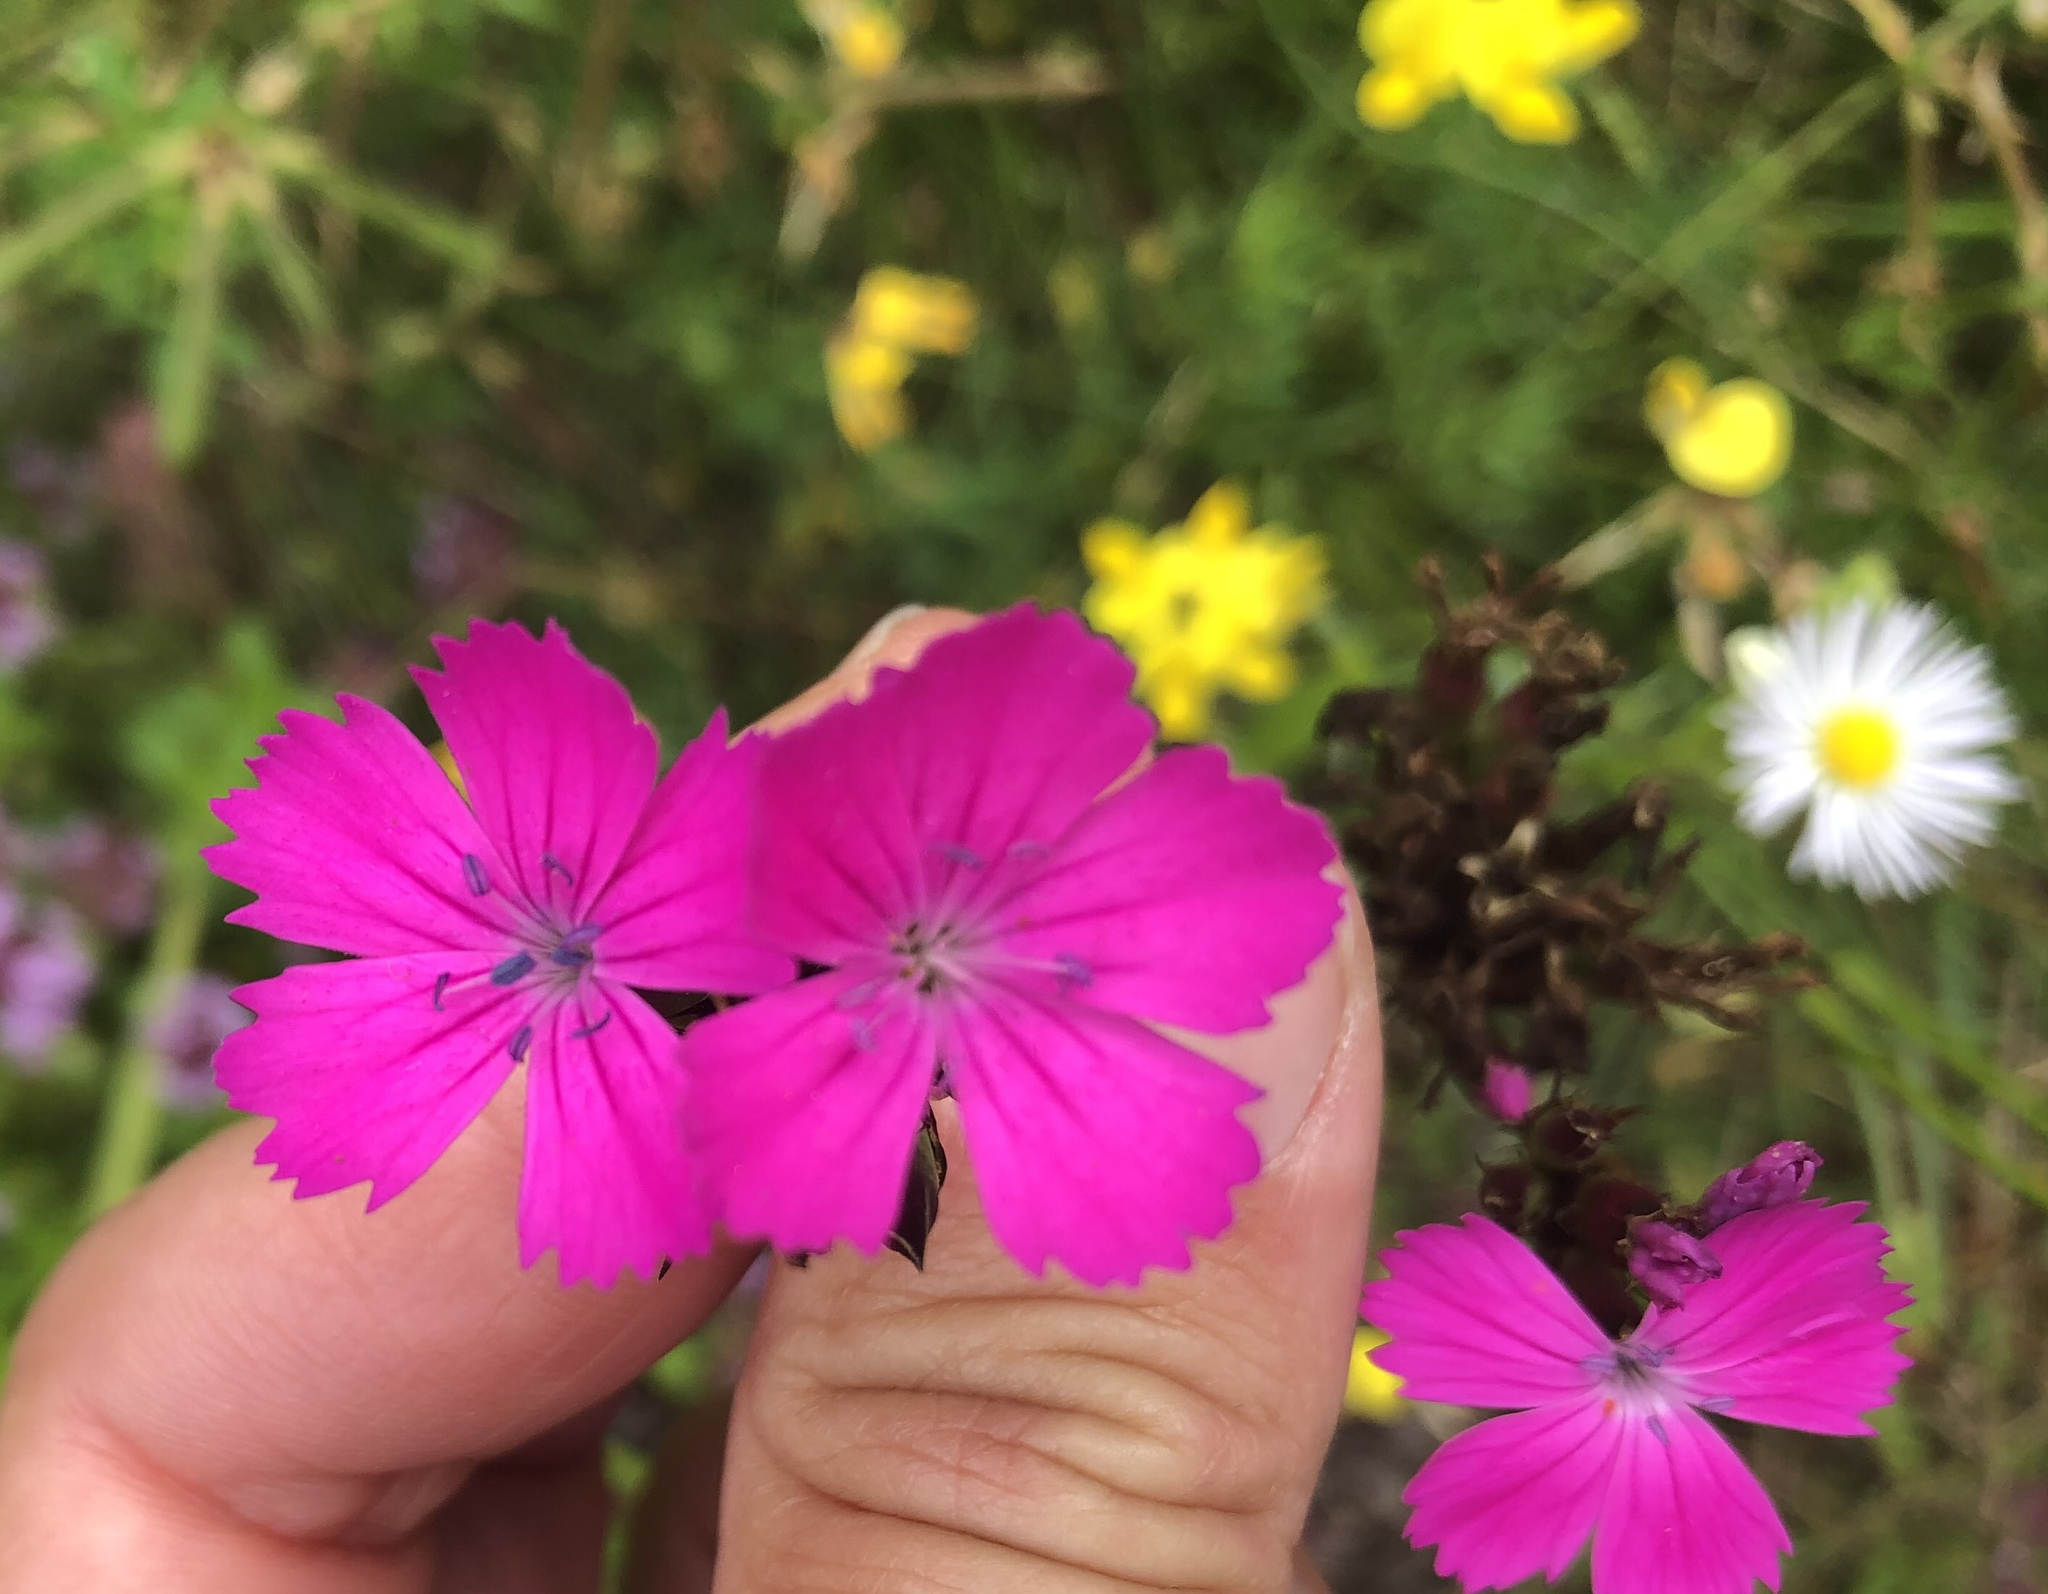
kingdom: Plantae
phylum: Tracheophyta
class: Magnoliopsida
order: Caryophyllales
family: Caryophyllaceae
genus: Dianthus
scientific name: Dianthus carthusianorum
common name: Carthusian pink
